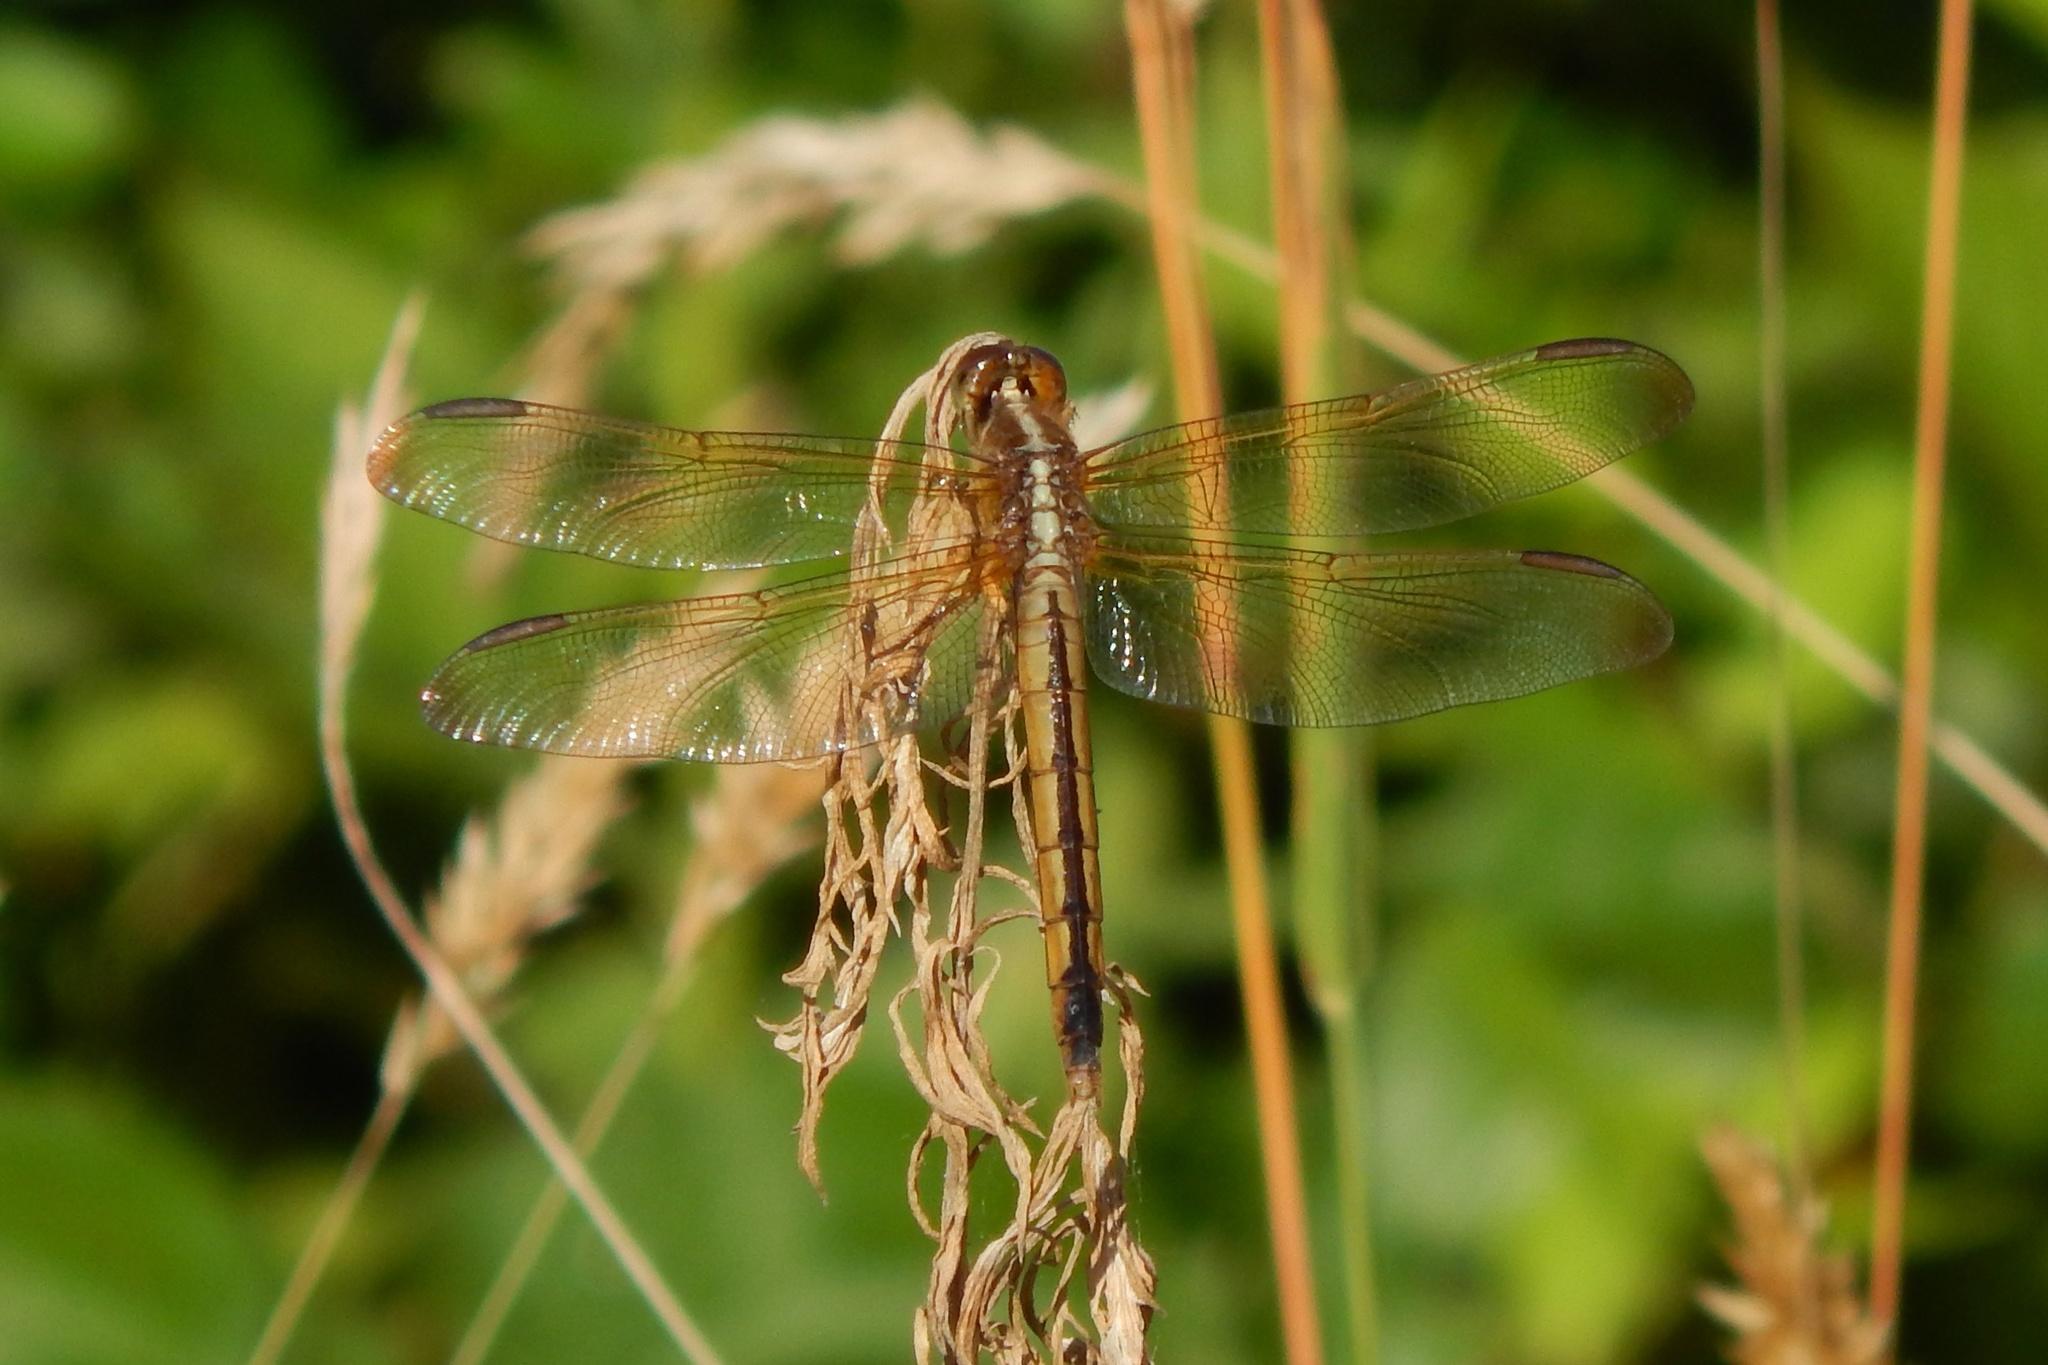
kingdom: Animalia
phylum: Arthropoda
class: Insecta
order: Odonata
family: Libellulidae
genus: Libellula
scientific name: Libellula needhami
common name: Needham's skimmer
